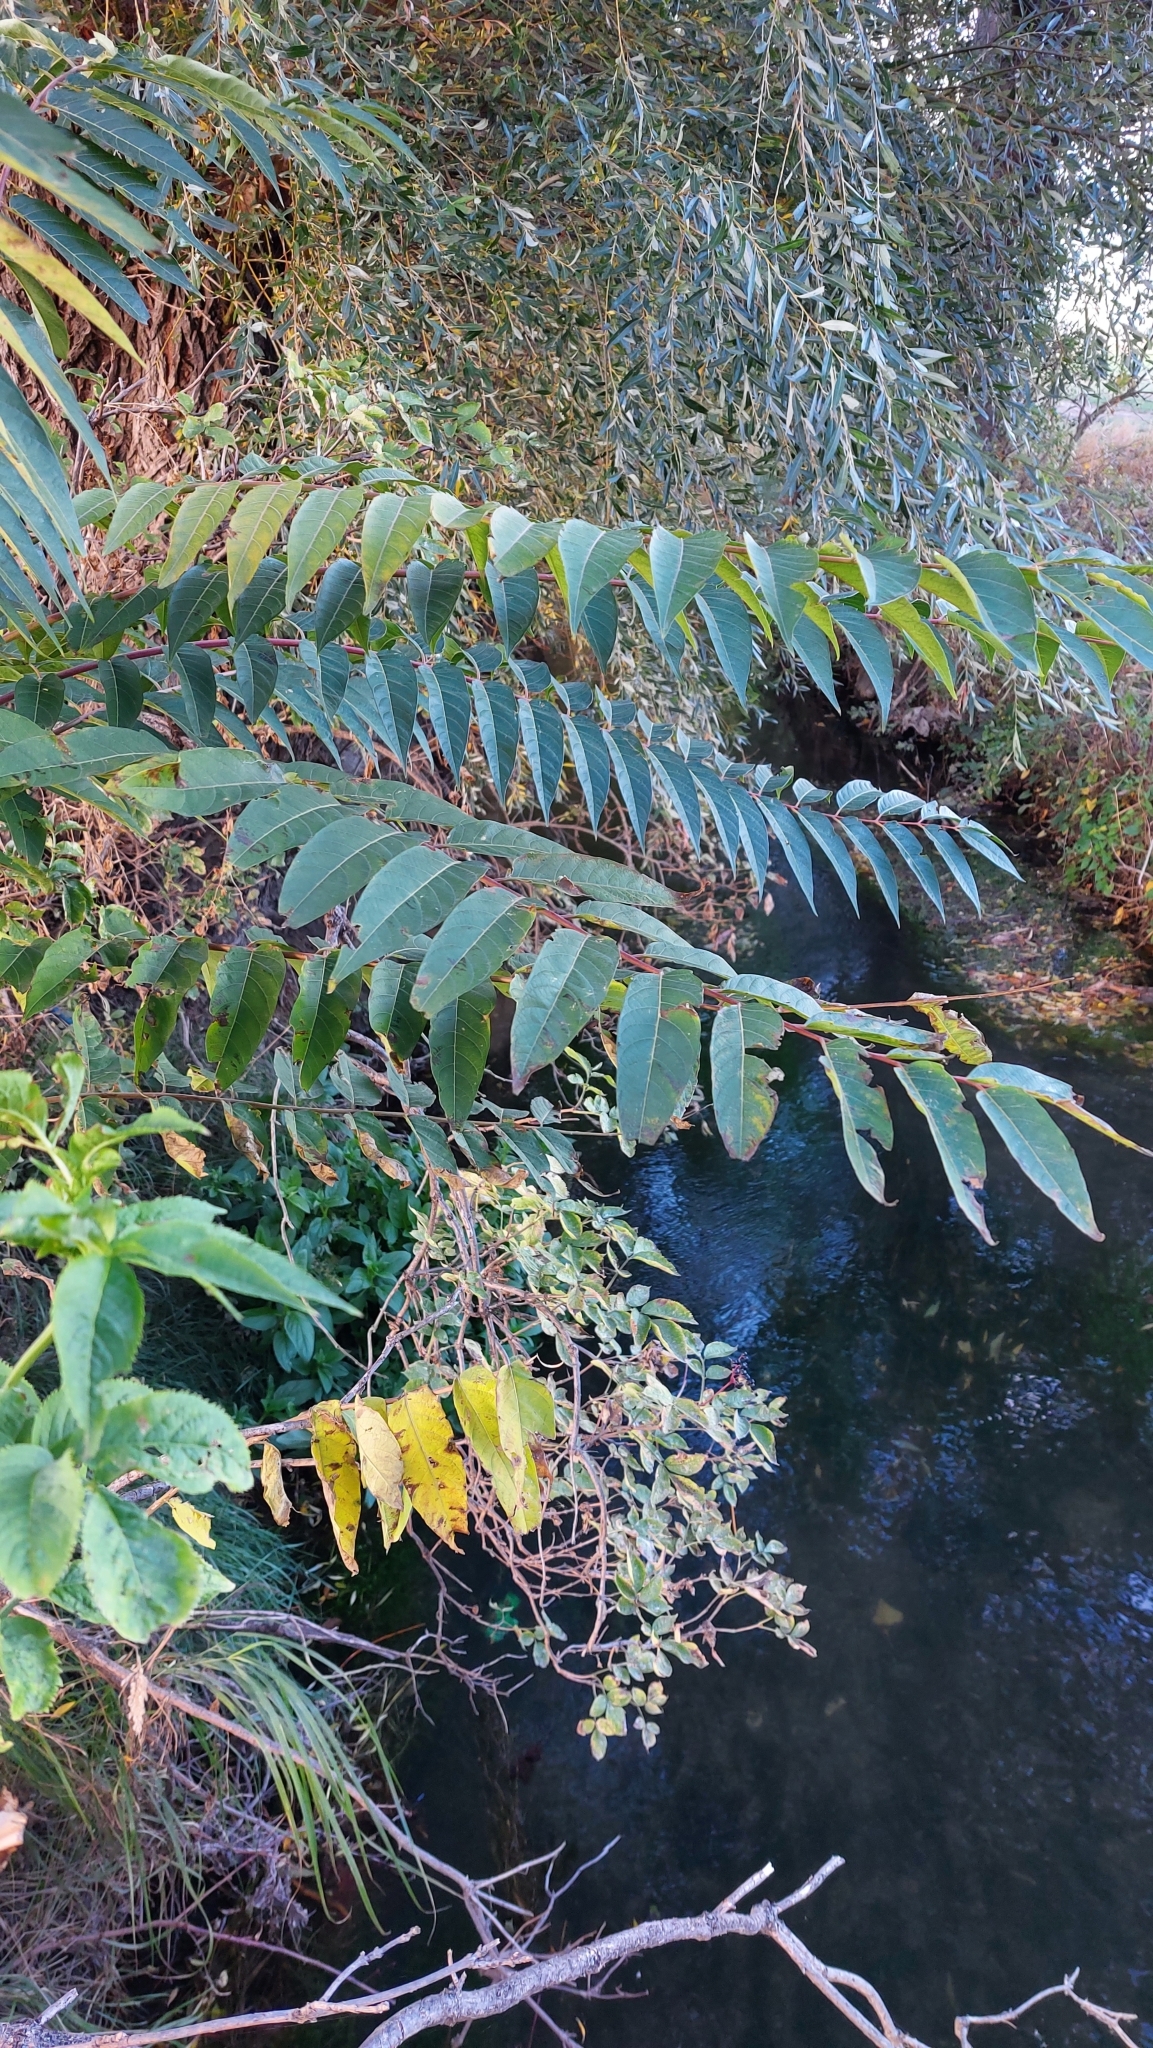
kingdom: Plantae
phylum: Tracheophyta
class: Magnoliopsida
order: Sapindales
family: Simaroubaceae
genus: Ailanthus
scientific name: Ailanthus altissima
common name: Tree-of-heaven
